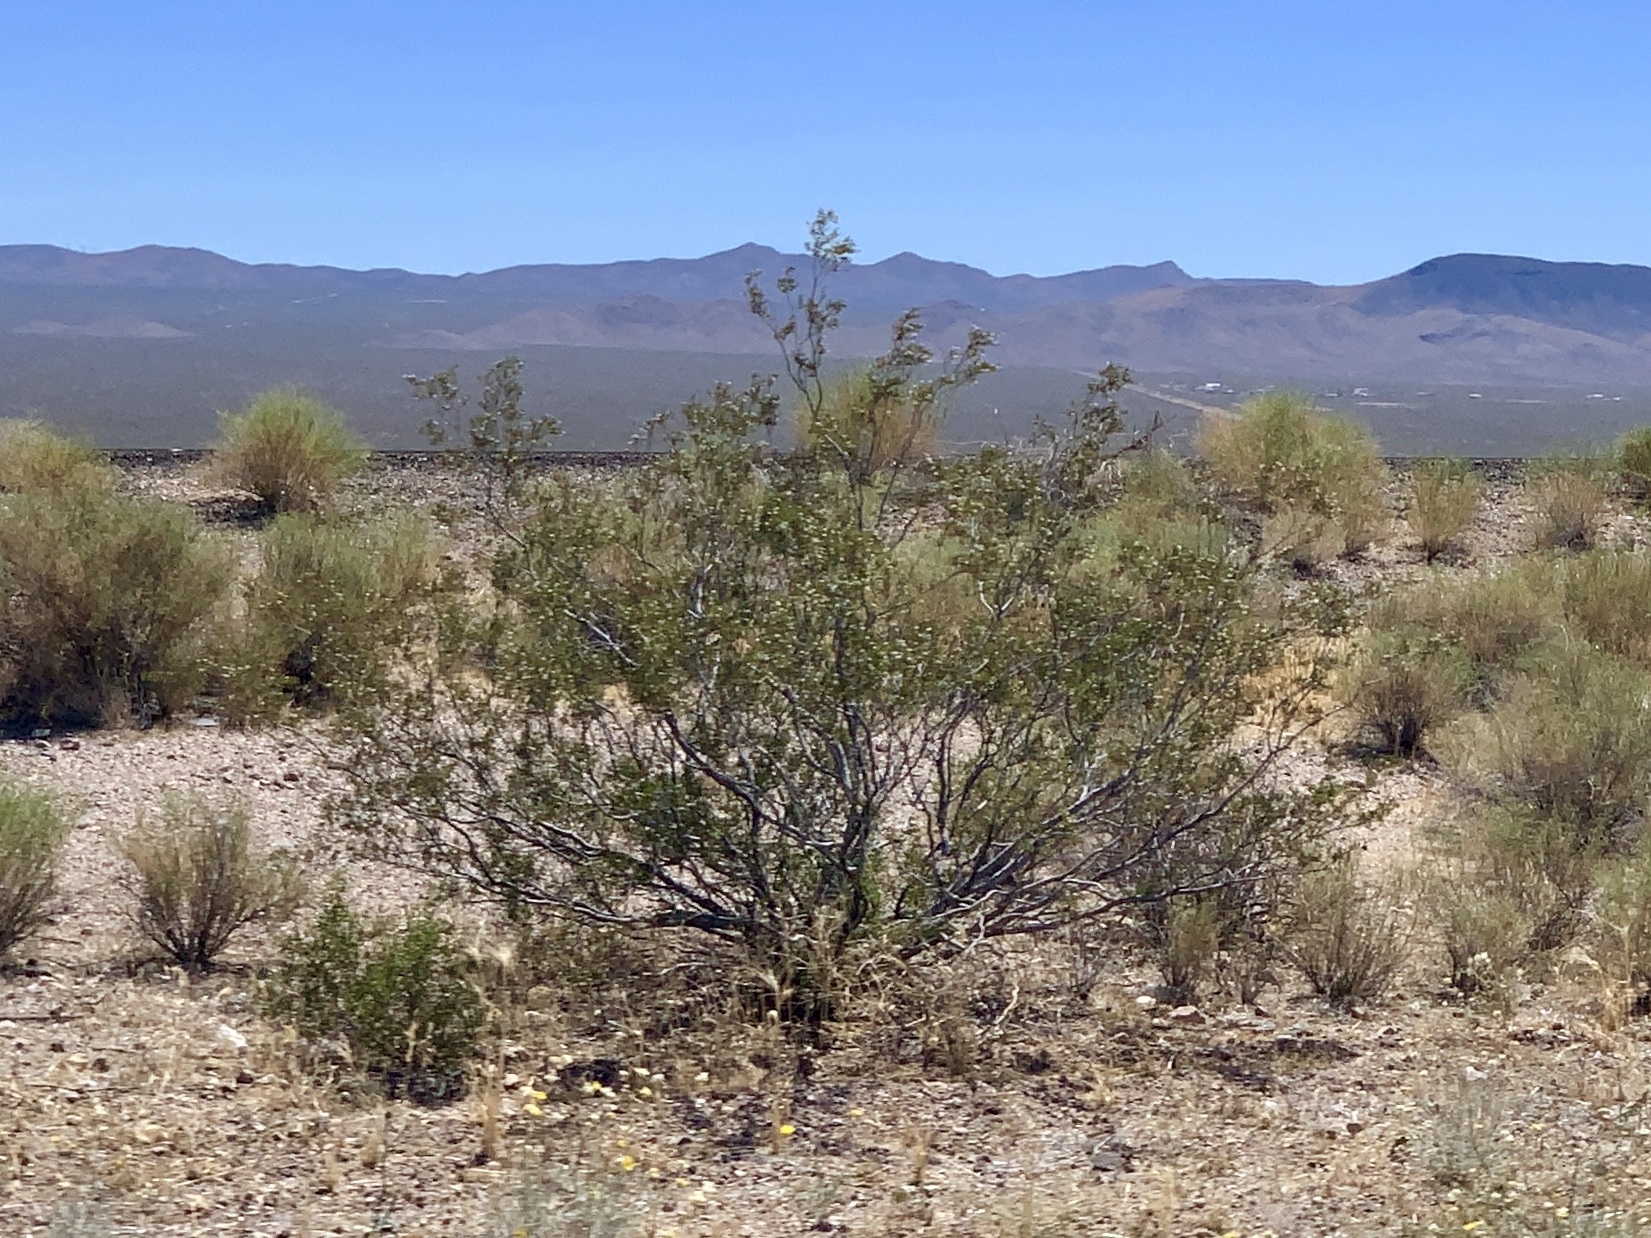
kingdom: Plantae
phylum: Tracheophyta
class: Magnoliopsida
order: Zygophyllales
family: Zygophyllaceae
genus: Larrea
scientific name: Larrea tridentata
